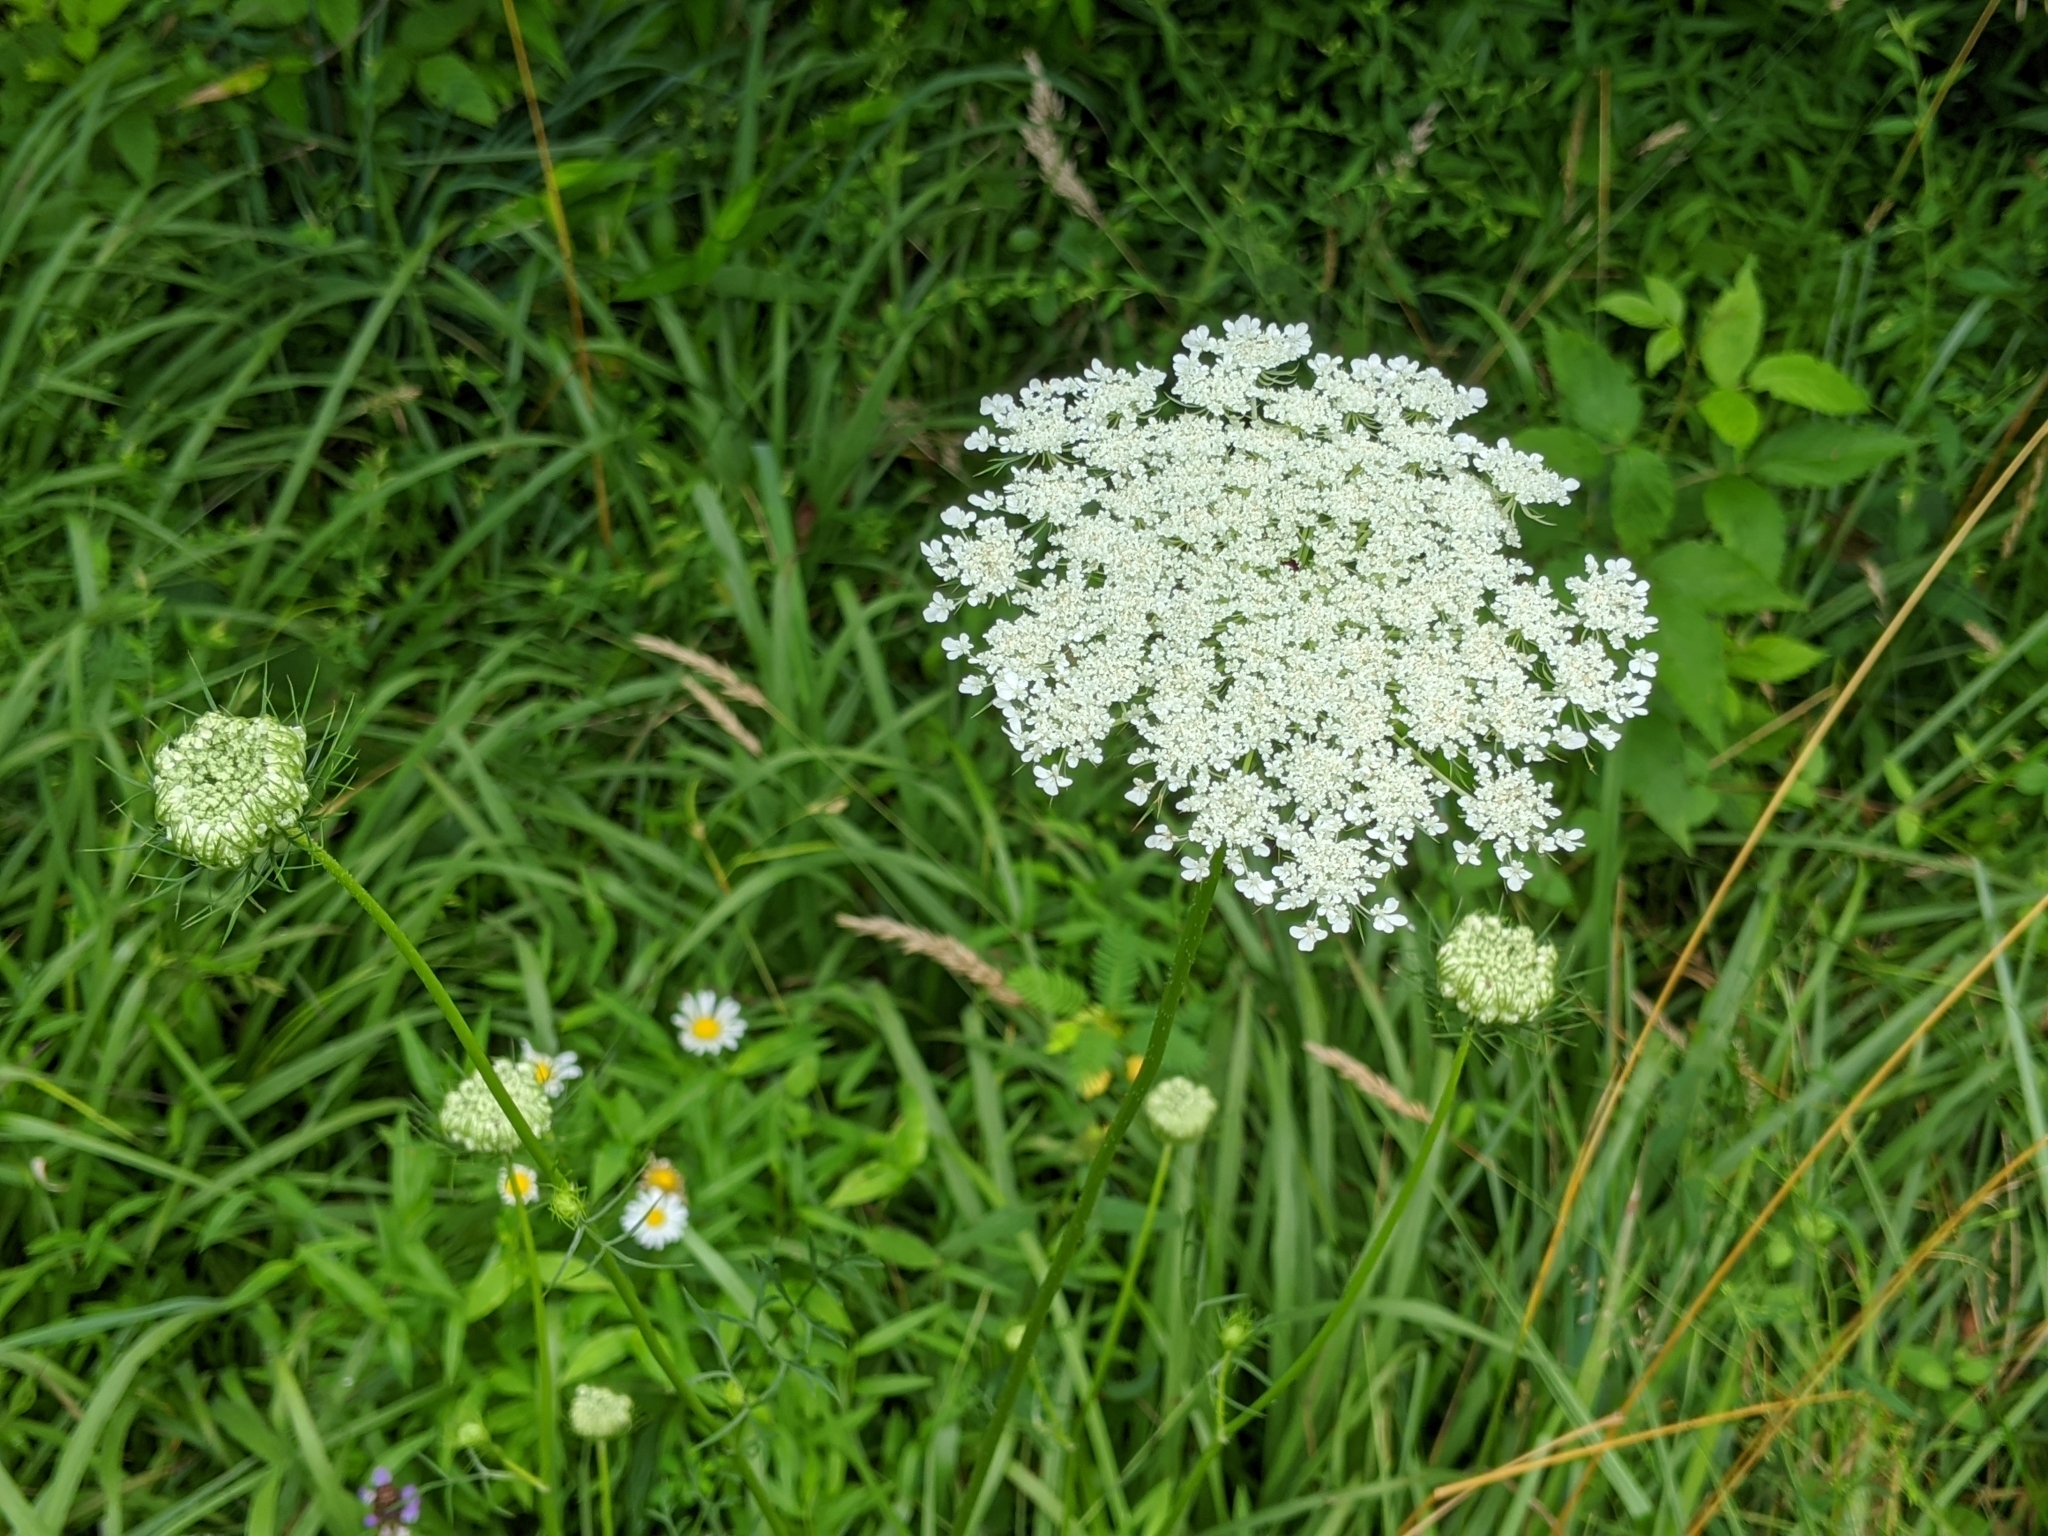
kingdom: Plantae
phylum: Tracheophyta
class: Magnoliopsida
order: Apiales
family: Apiaceae
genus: Daucus
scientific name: Daucus carota
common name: Wild carrot
